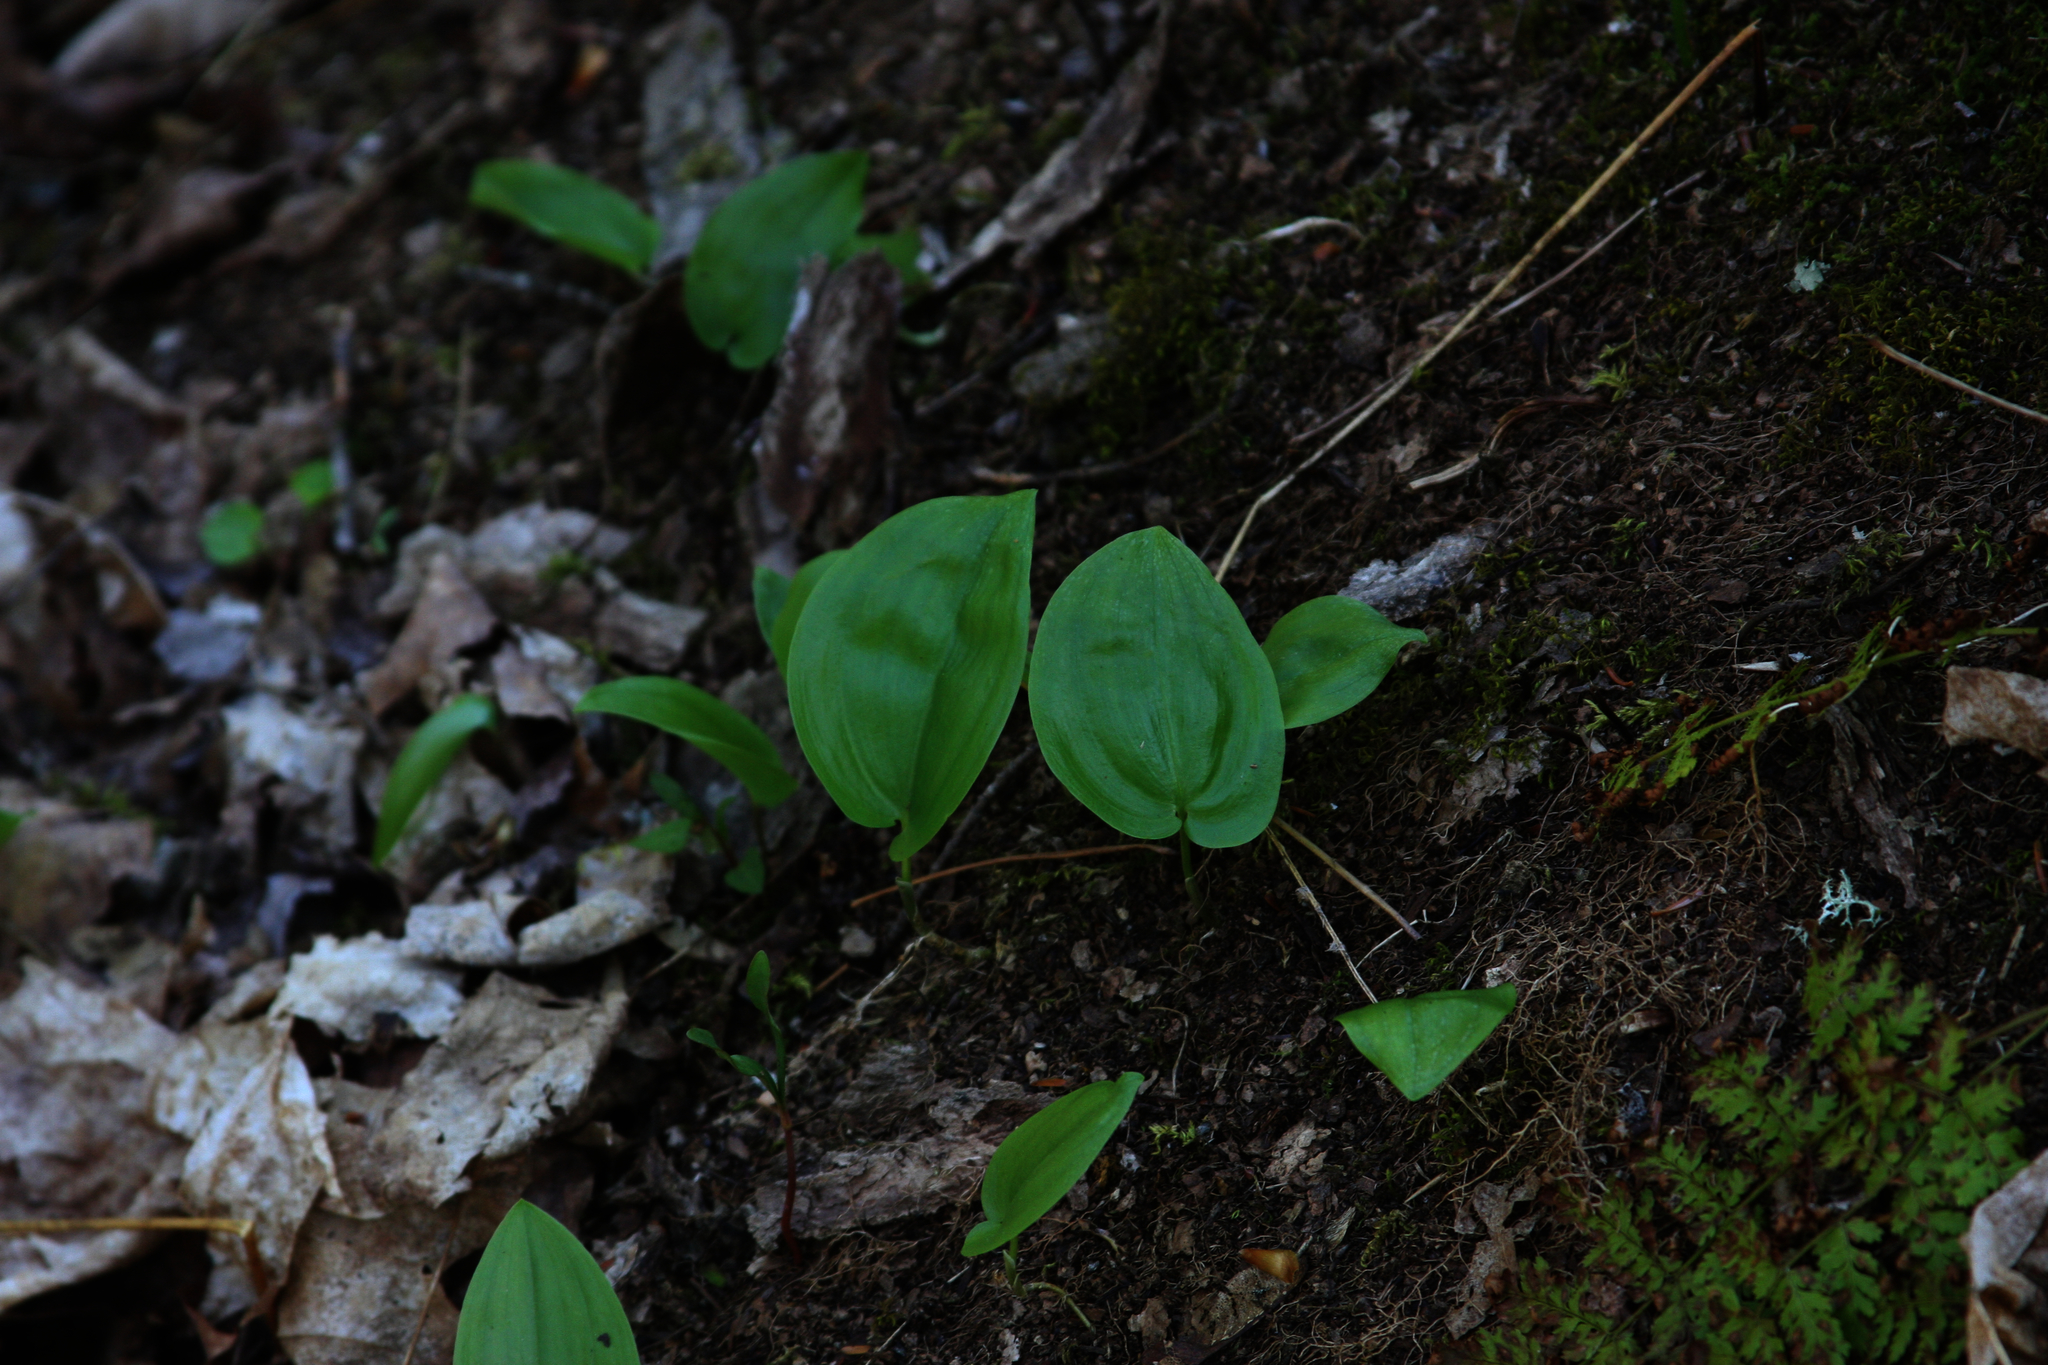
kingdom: Plantae
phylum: Tracheophyta
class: Liliopsida
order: Asparagales
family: Asparagaceae
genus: Maianthemum
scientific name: Maianthemum canadense
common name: False lily-of-the-valley
